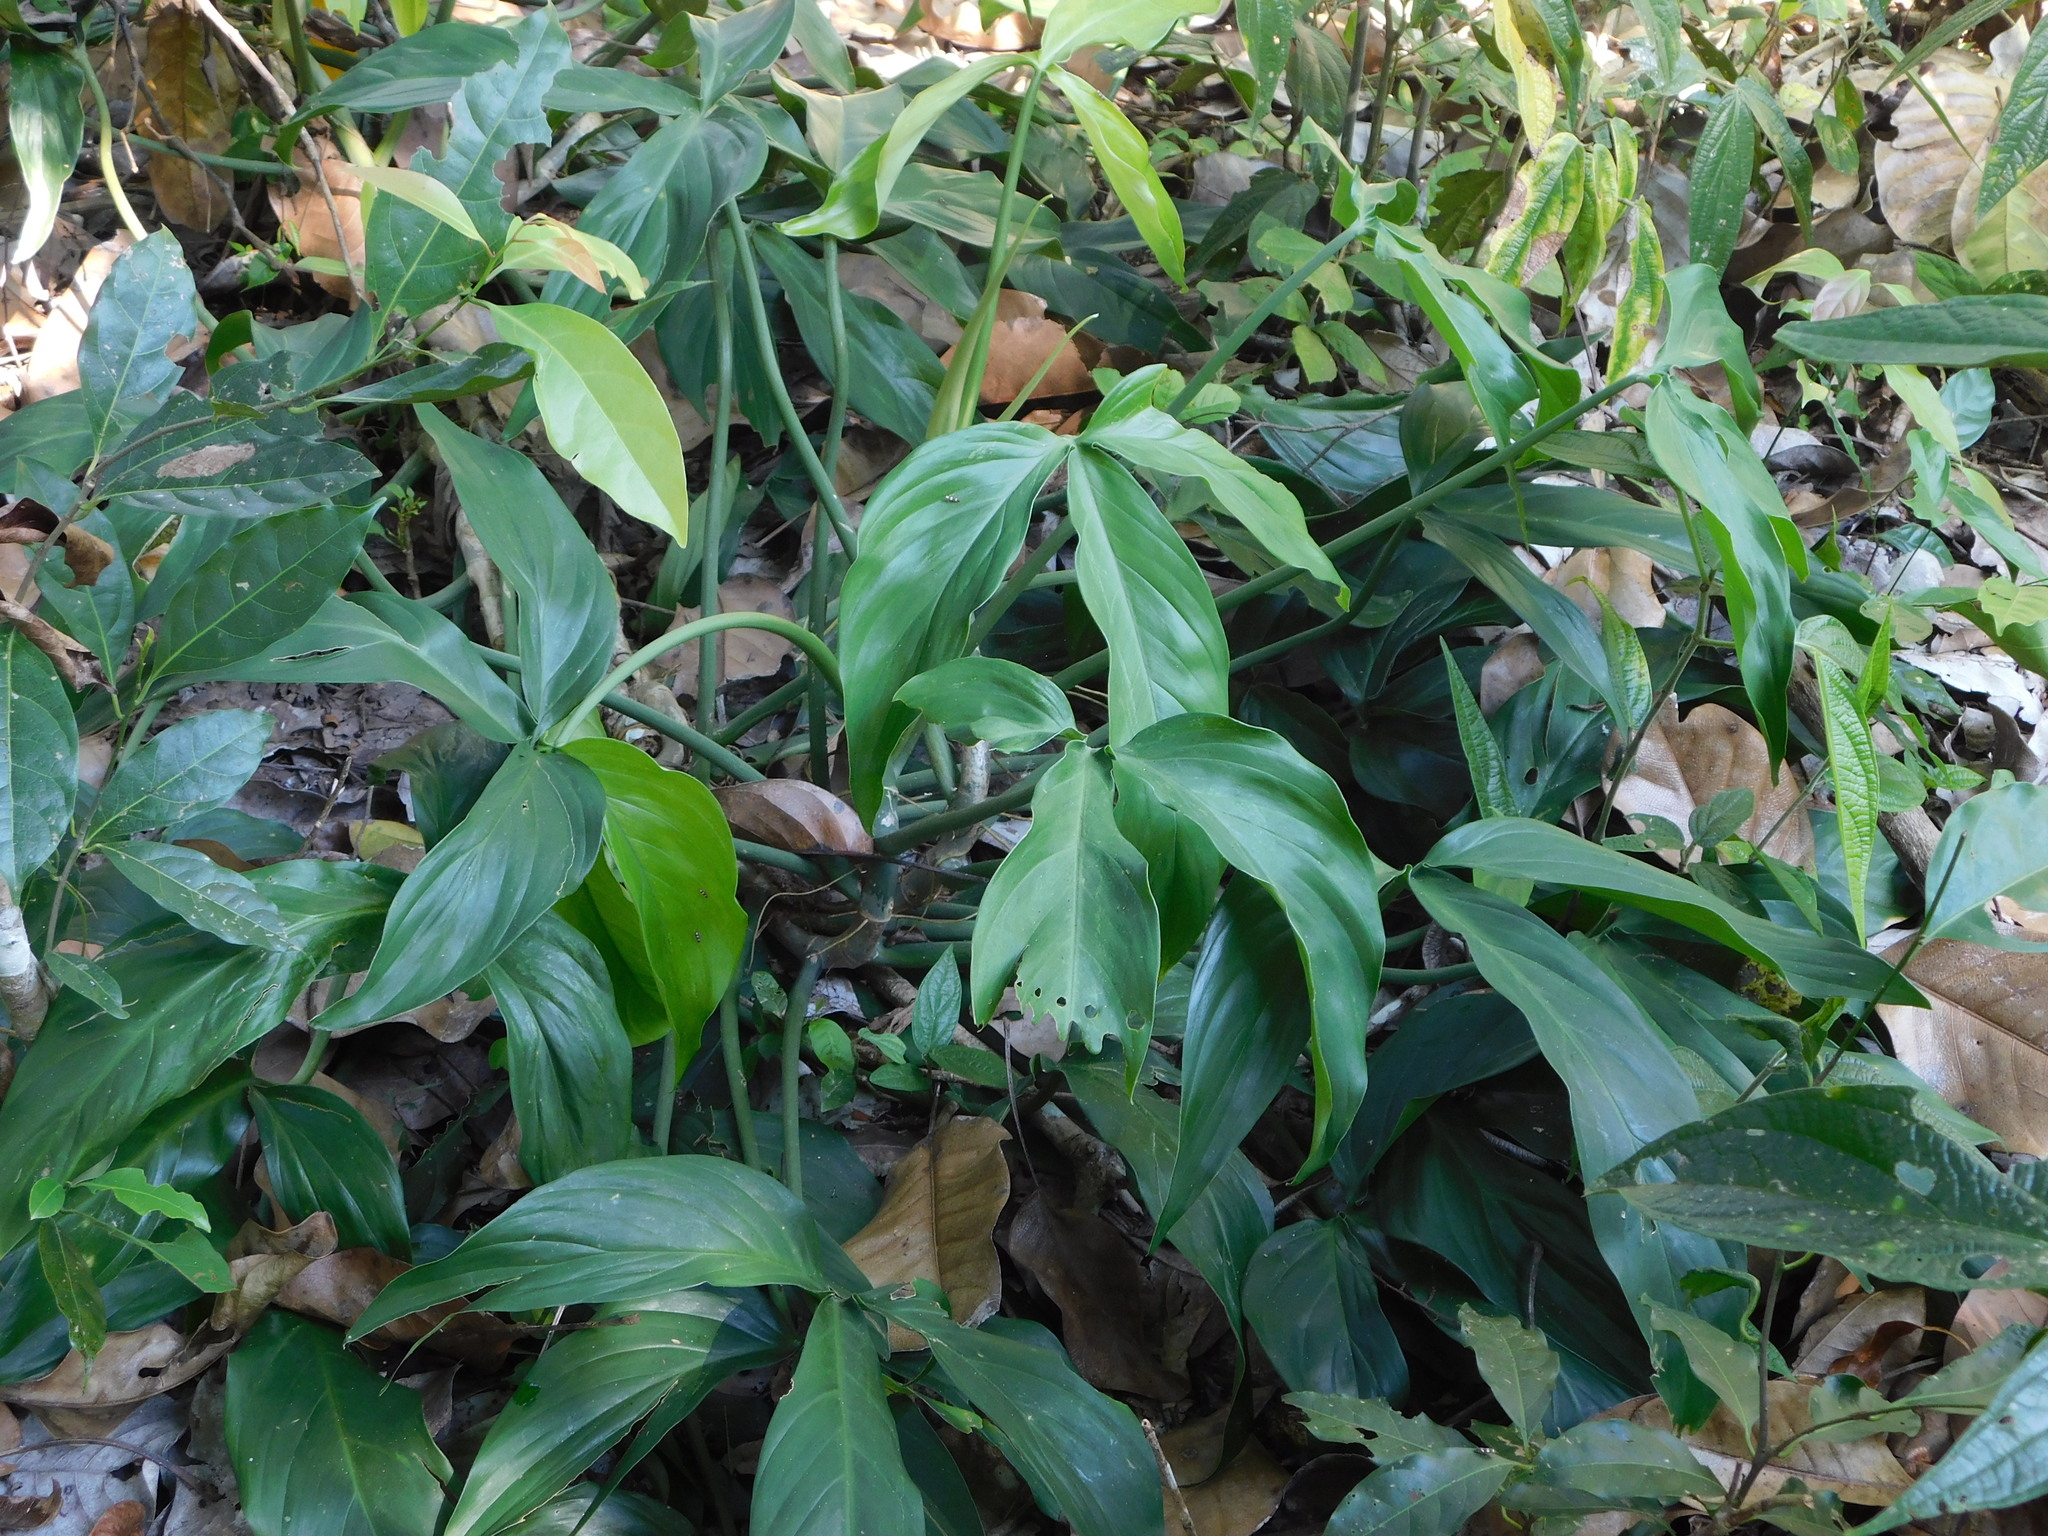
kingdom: Plantae
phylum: Tracheophyta
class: Liliopsida
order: Alismatales
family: Araceae
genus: Syngonium
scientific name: Syngonium angustatum
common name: Fivefingers
